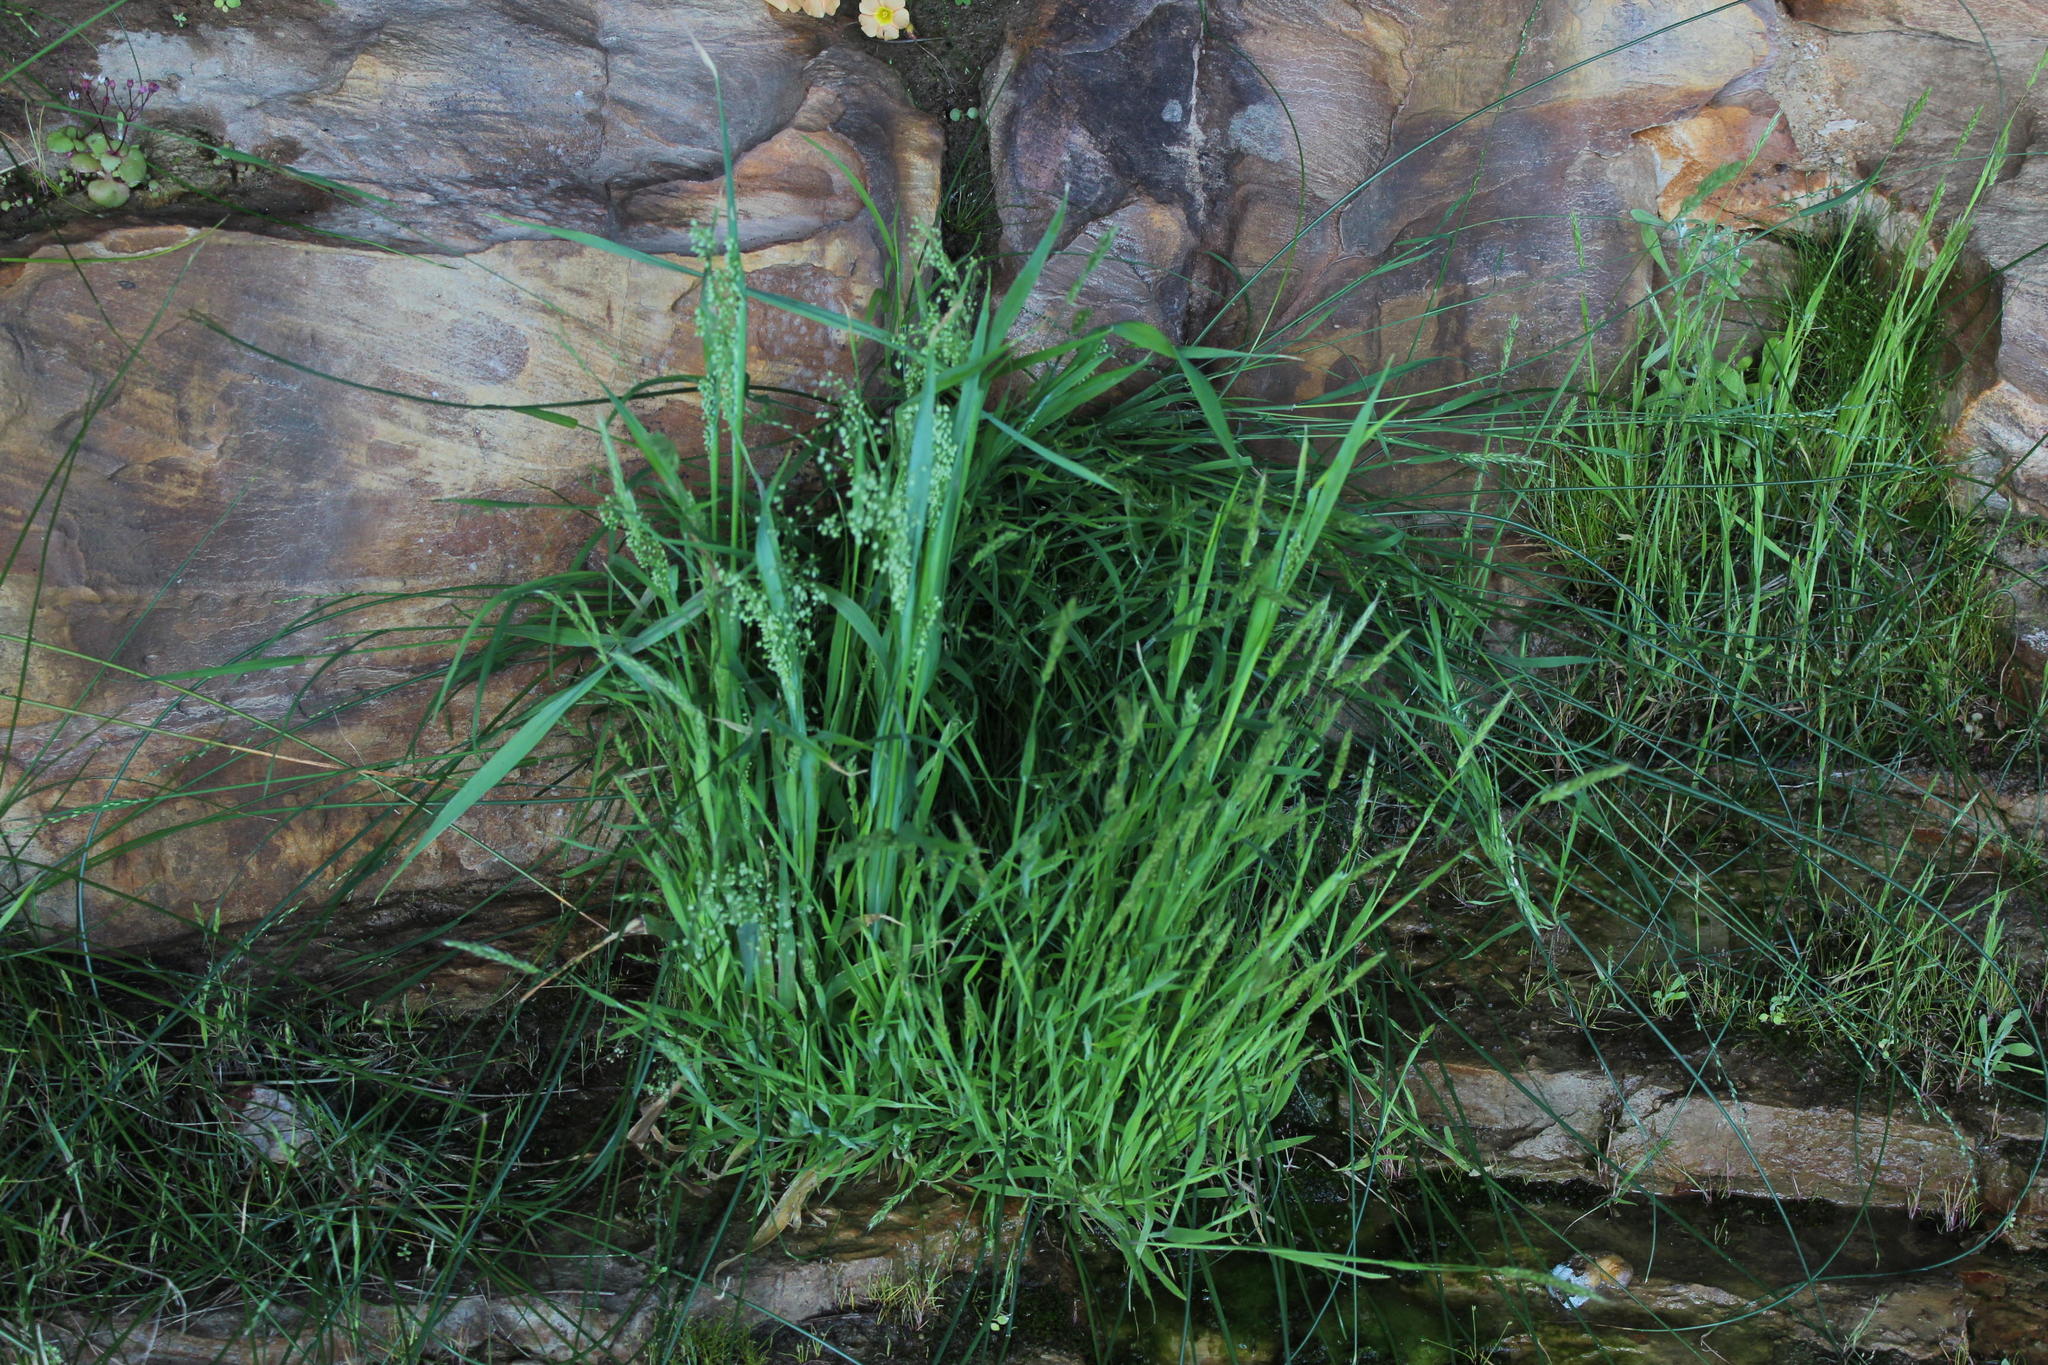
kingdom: Plantae
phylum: Tracheophyta
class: Liliopsida
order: Poales
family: Poaceae
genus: Briza
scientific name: Briza minor
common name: Lesser quaking-grass
